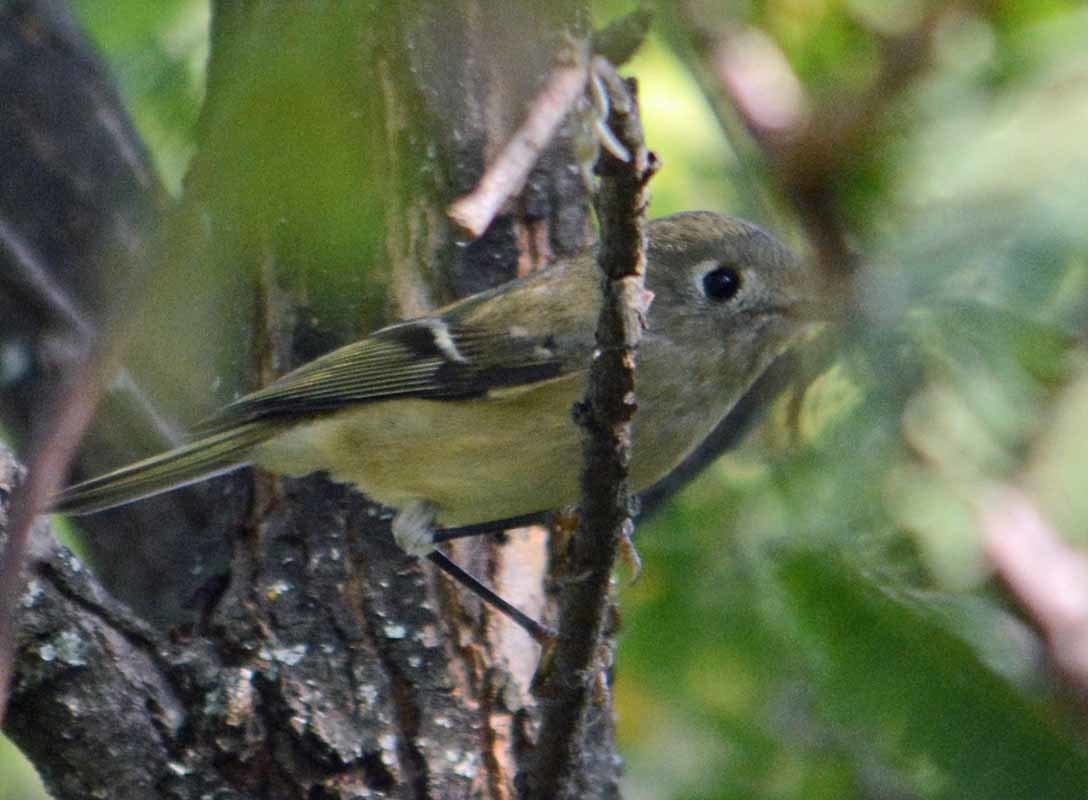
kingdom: Animalia
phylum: Chordata
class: Aves
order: Passeriformes
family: Regulidae
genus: Regulus
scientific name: Regulus calendula
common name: Ruby-crowned kinglet
